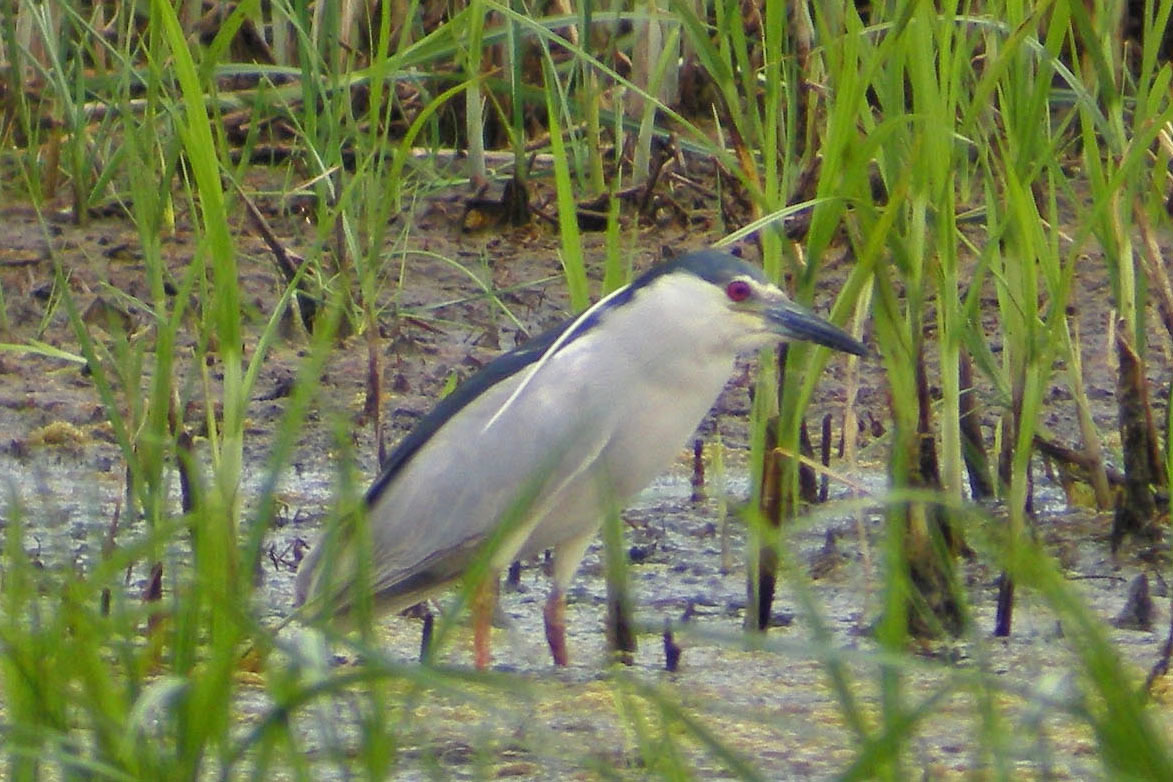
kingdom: Animalia
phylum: Chordata
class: Aves
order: Pelecaniformes
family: Ardeidae
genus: Nycticorax
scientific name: Nycticorax nycticorax
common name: Black-crowned night heron
